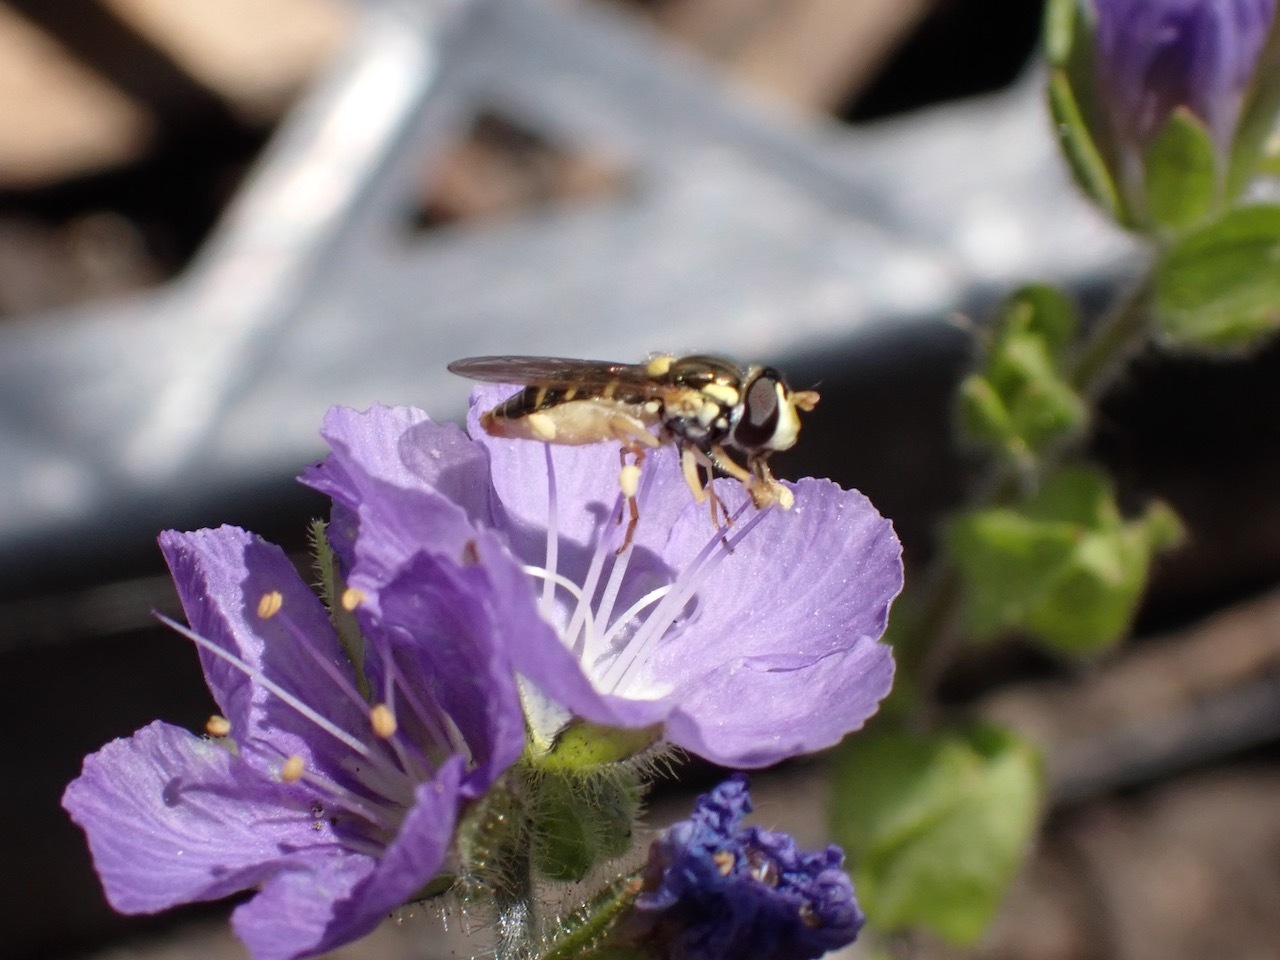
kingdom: Animalia
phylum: Arthropoda
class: Insecta
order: Diptera
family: Syrphidae
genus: Sphaerophoria
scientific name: Sphaerophoria sulphuripes
